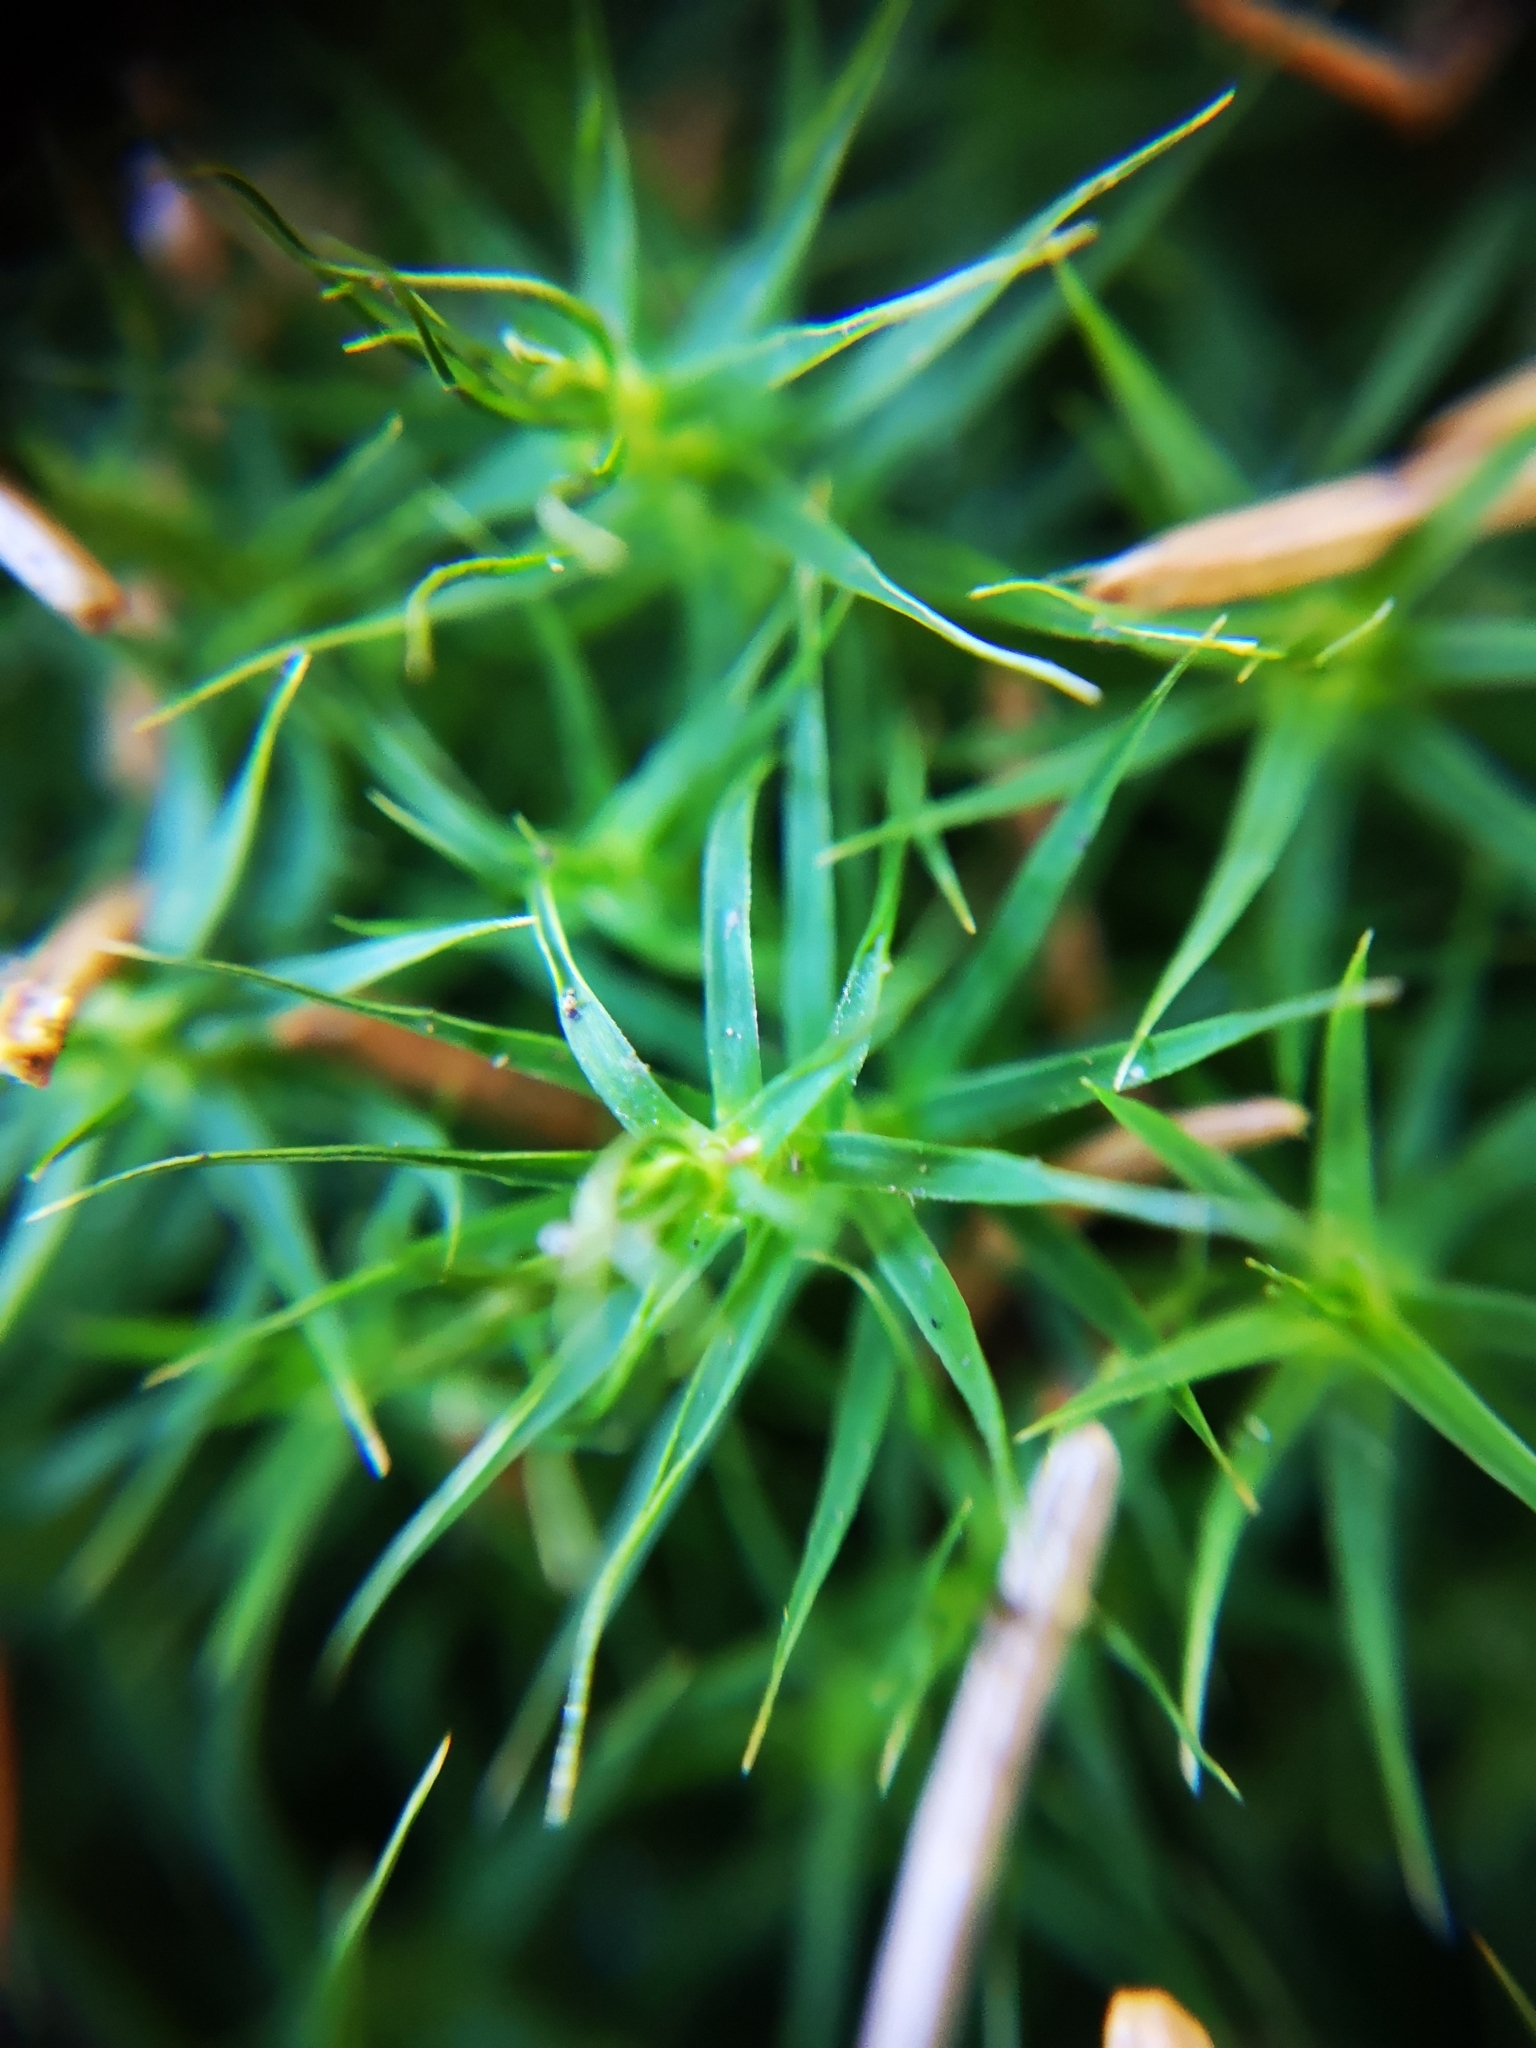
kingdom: Plantae
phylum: Bryophyta
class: Polytrichopsida
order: Polytrichales
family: Polytrichaceae
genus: Polytrichum
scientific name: Polytrichum formosum
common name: Bank haircap moss
